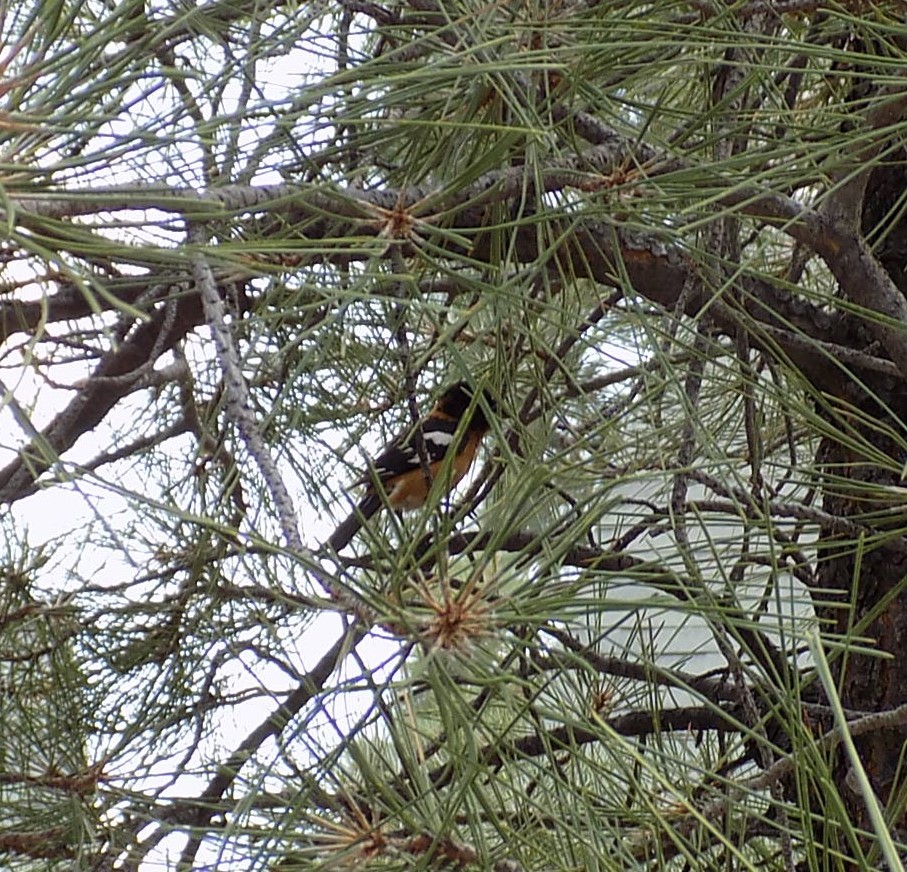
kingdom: Animalia
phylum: Chordata
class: Aves
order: Passeriformes
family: Cardinalidae
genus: Pheucticus
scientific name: Pheucticus melanocephalus
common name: Black-headed grosbeak
